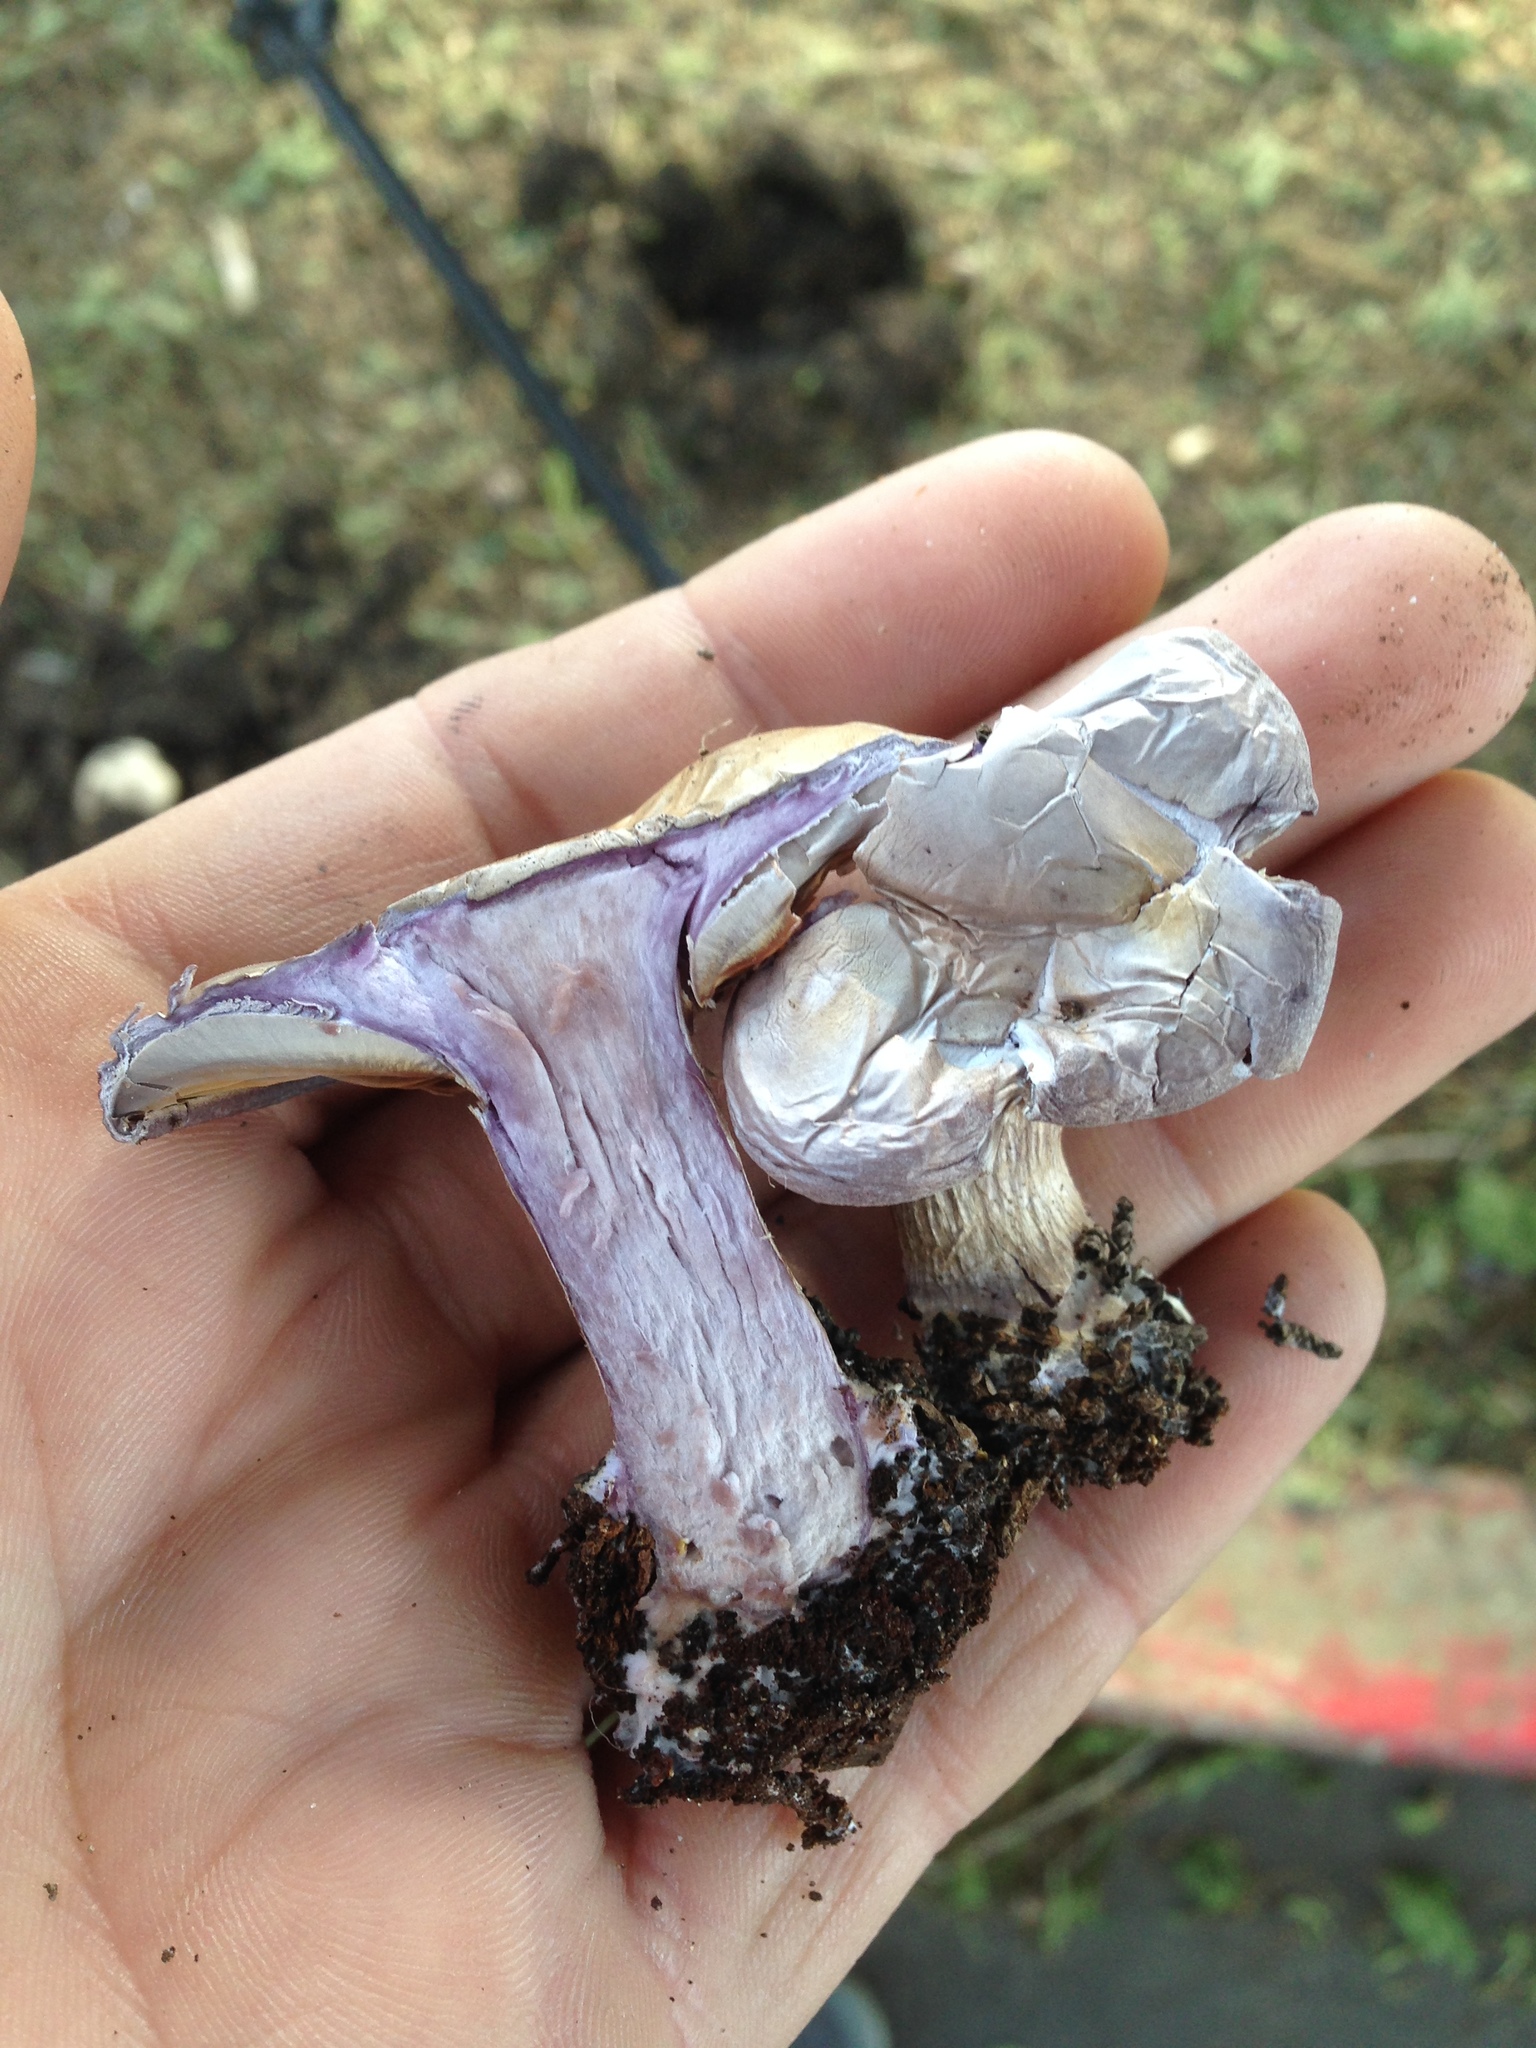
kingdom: Fungi
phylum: Basidiomycota
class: Agaricomycetes
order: Agaricales
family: Tricholomataceae
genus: Collybia
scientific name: Collybia
